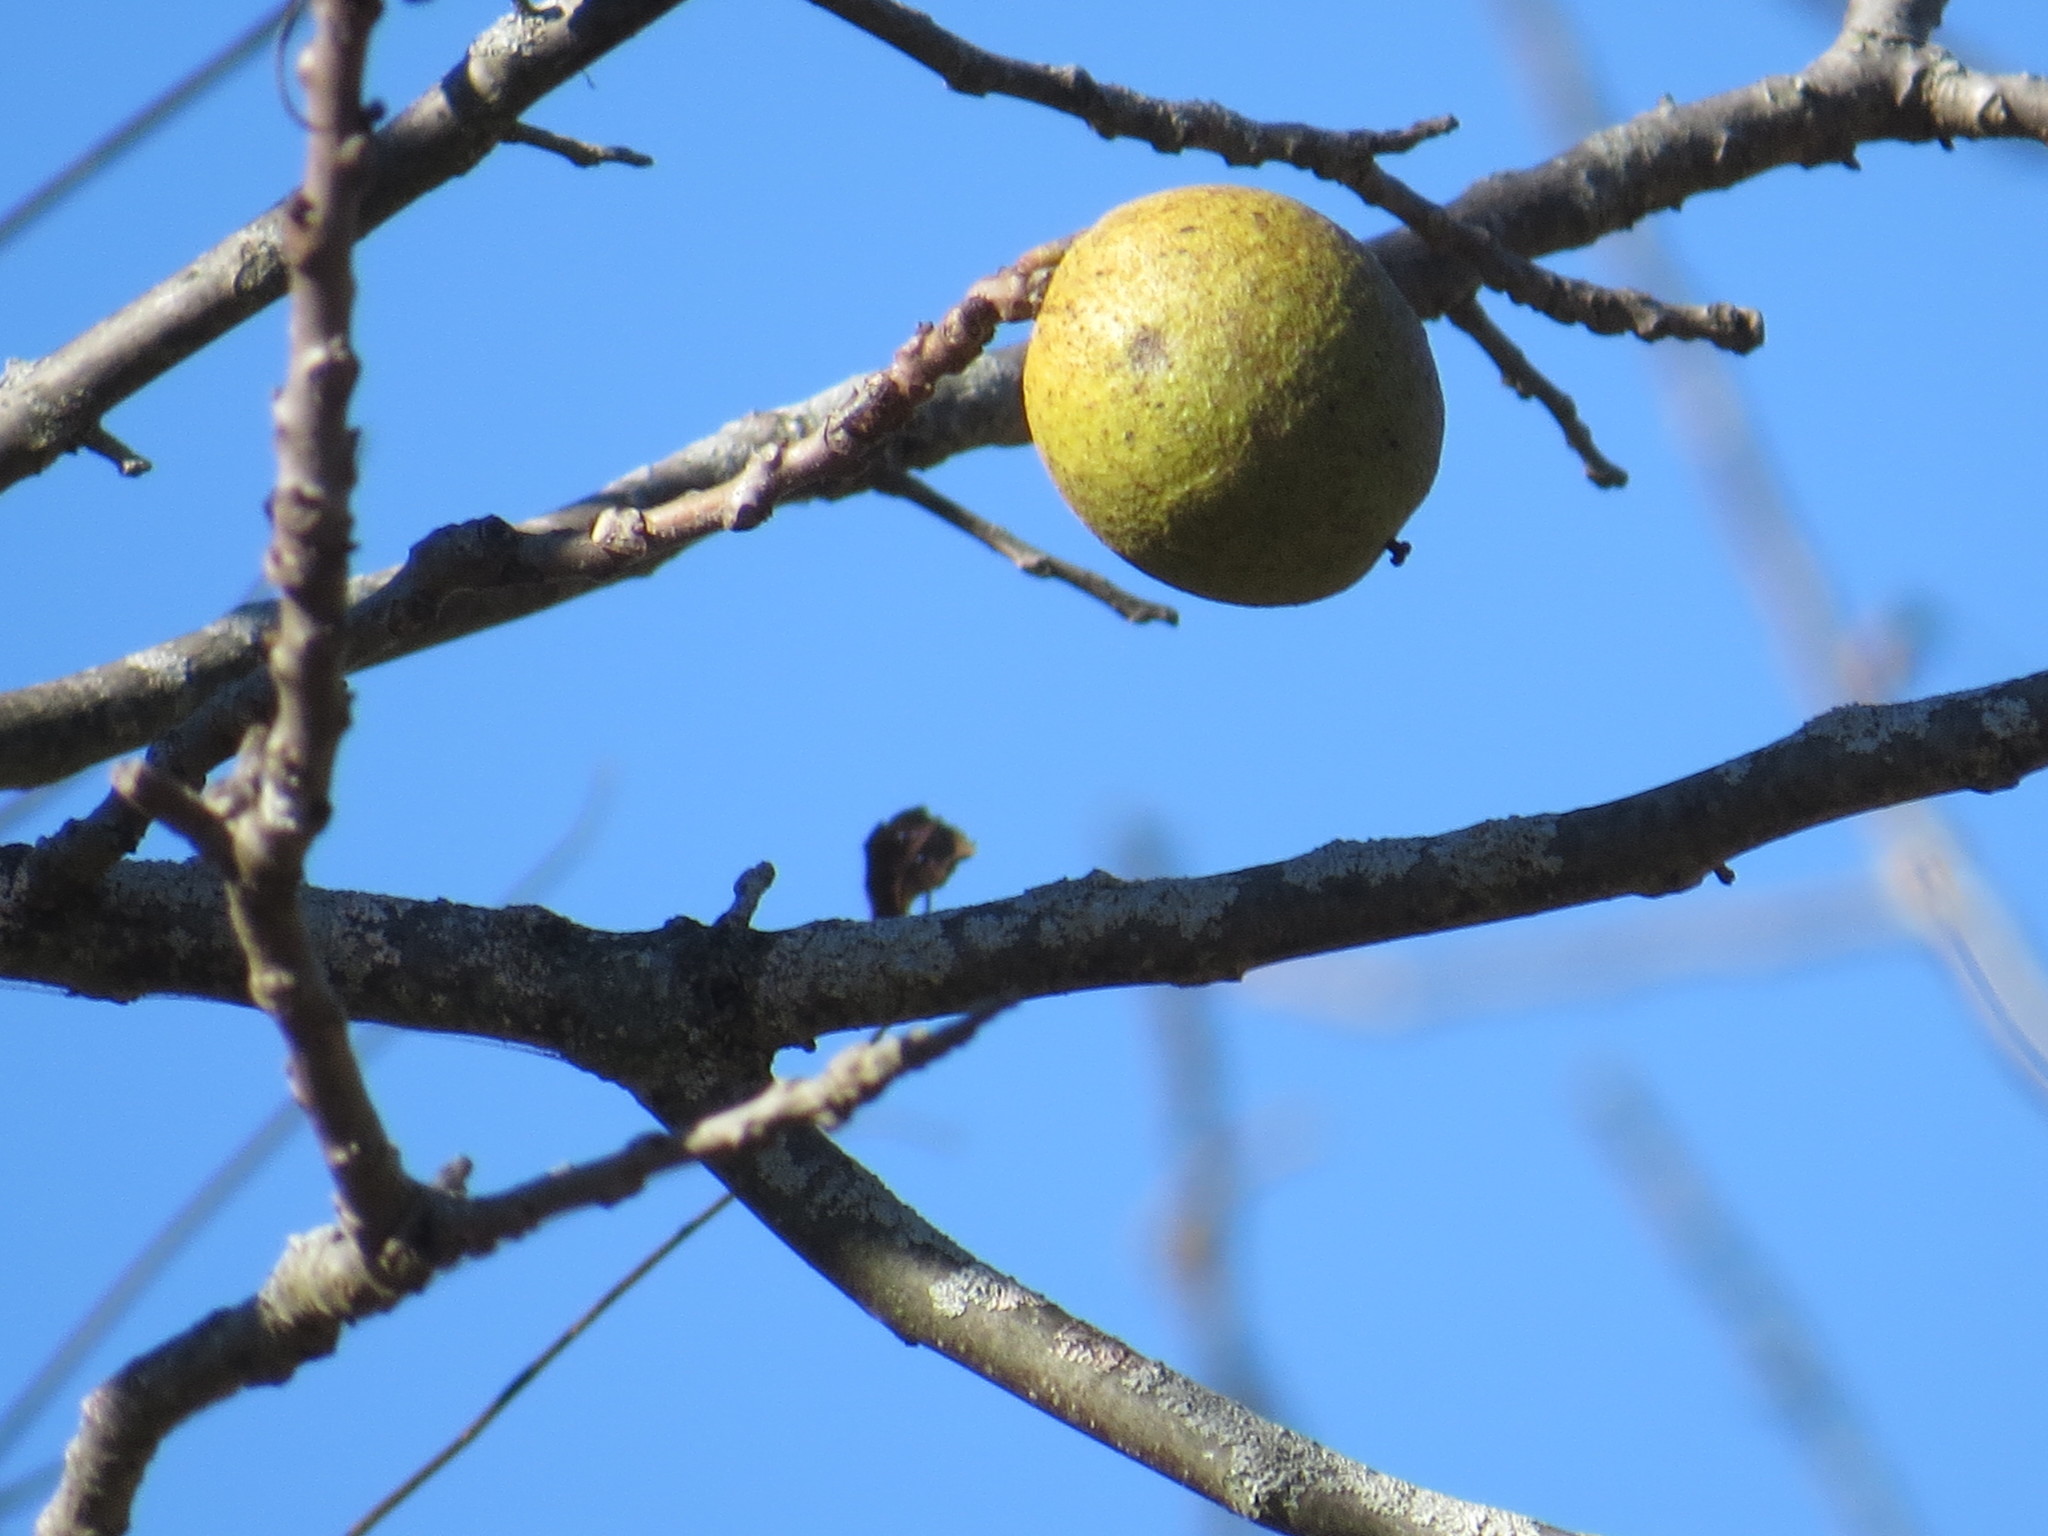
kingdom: Plantae
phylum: Tracheophyta
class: Magnoliopsida
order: Fagales
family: Juglandaceae
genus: Carya
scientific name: Carya cordiformis
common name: Bitternut hickory
